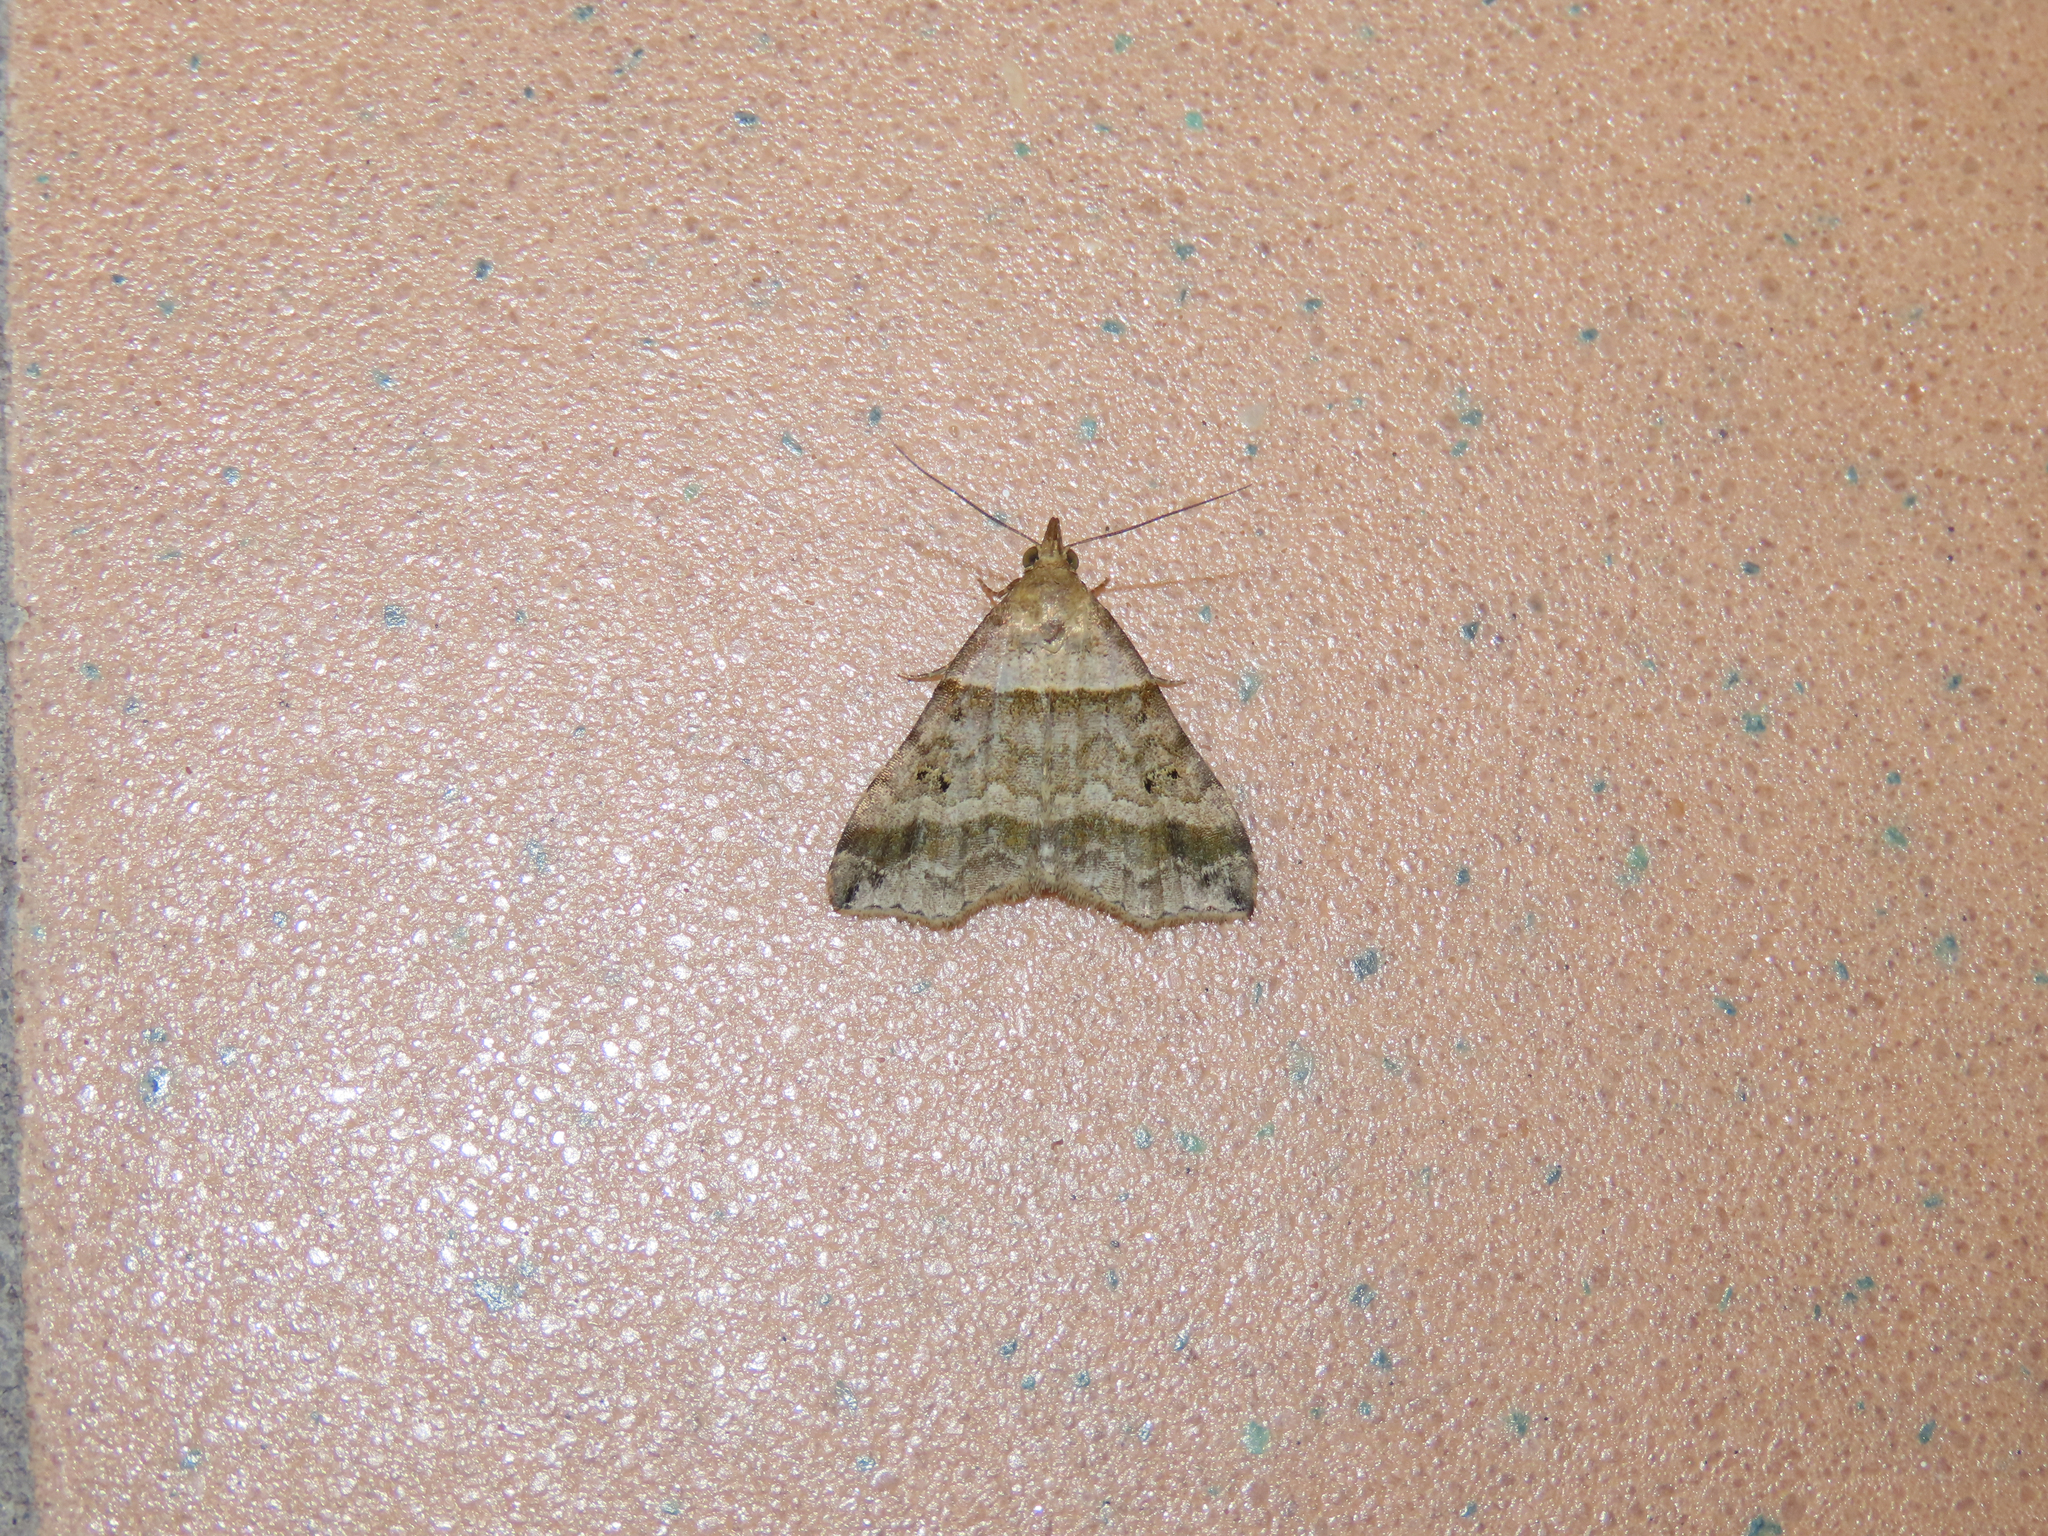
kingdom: Animalia
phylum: Arthropoda
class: Insecta
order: Lepidoptera
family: Erebidae
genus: Phaeolita
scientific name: Phaeolita pyramusalis
